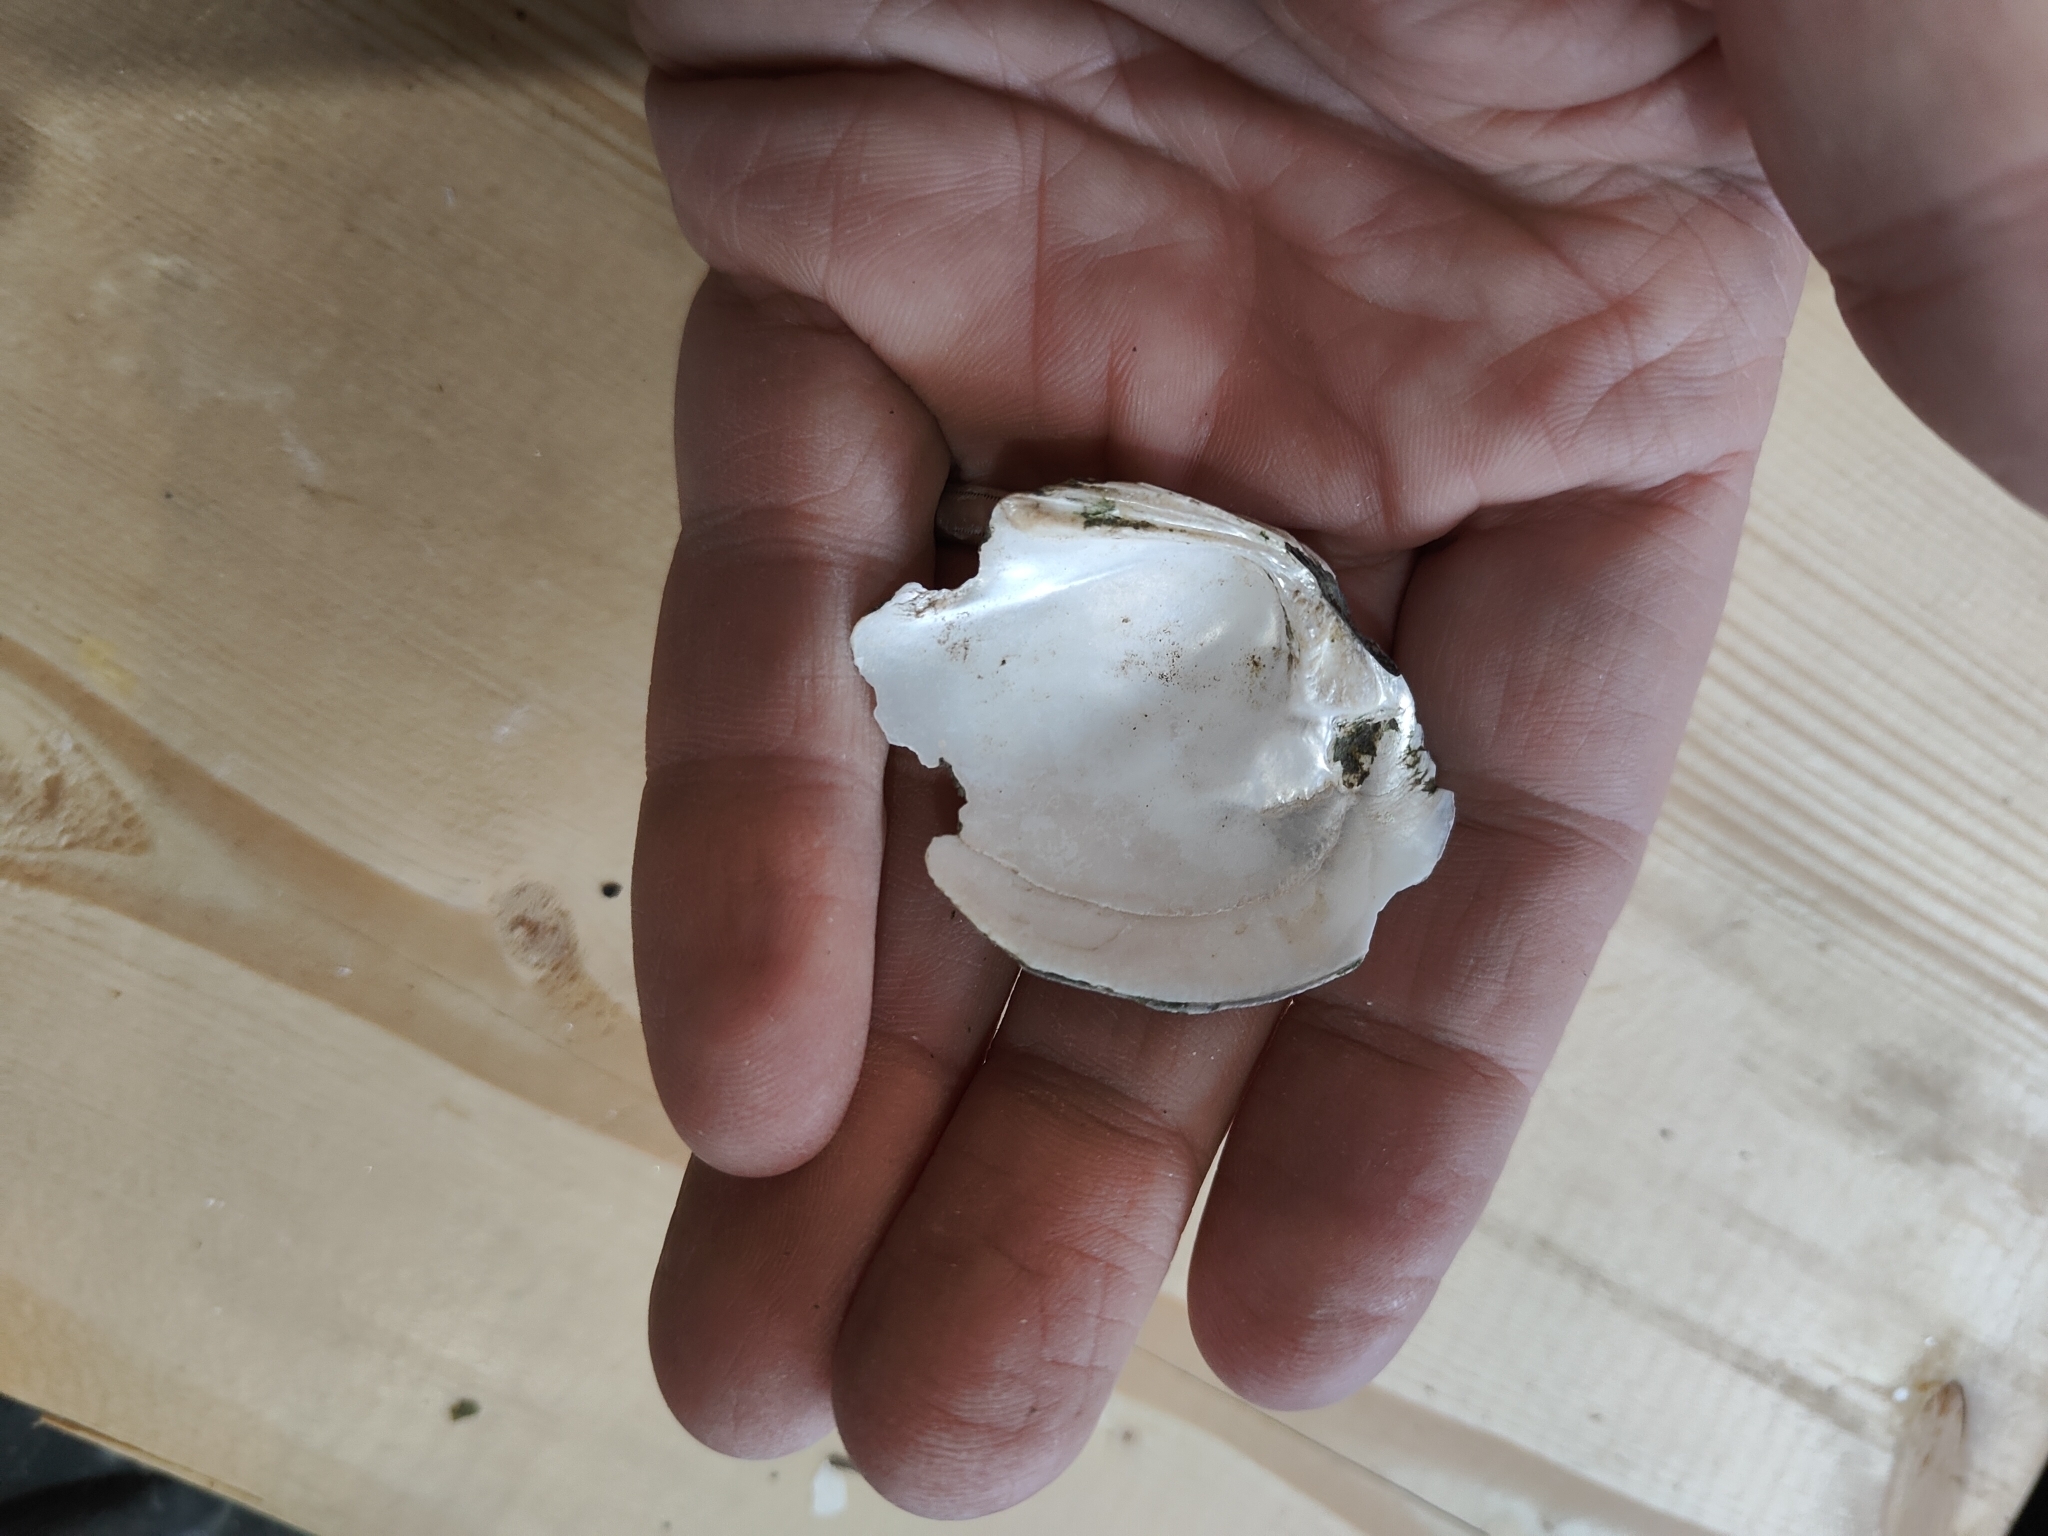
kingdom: Animalia
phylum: Mollusca
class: Bivalvia
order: Unionida
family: Unionidae
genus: Fusconaia
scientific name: Fusconaia flava
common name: Wabash pigtoe
